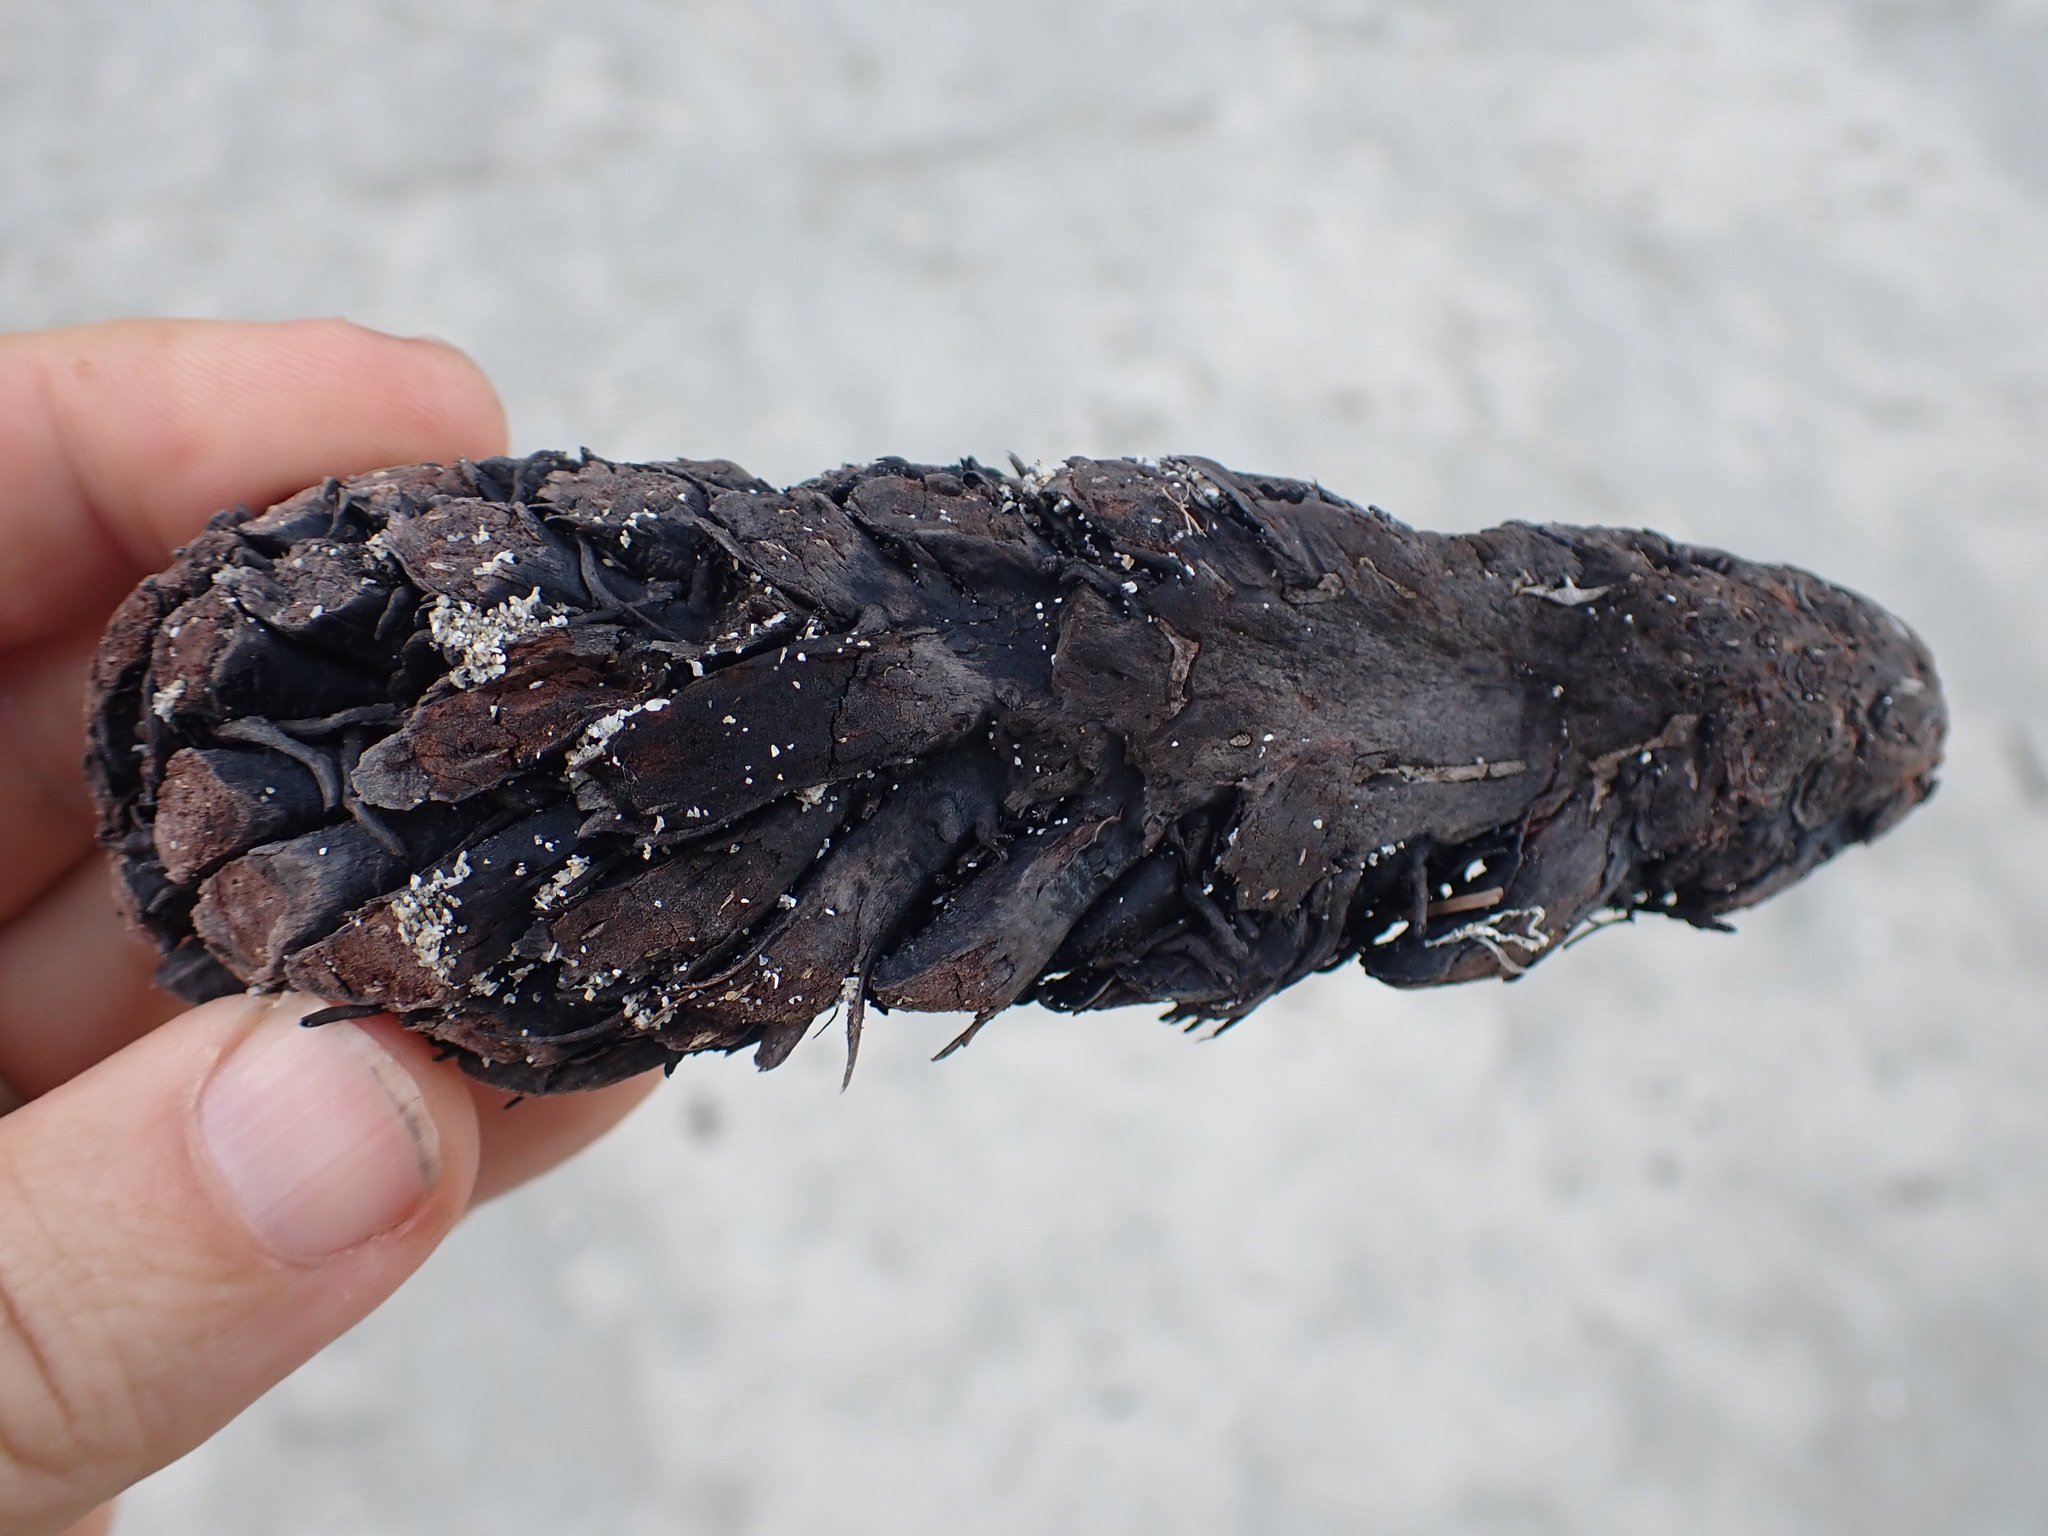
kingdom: Plantae
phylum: Tracheophyta
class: Polypodiopsida
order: Polypodiales
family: Dryopteridaceae
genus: Polystichum
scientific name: Polystichum munitum
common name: Western sword-fern
